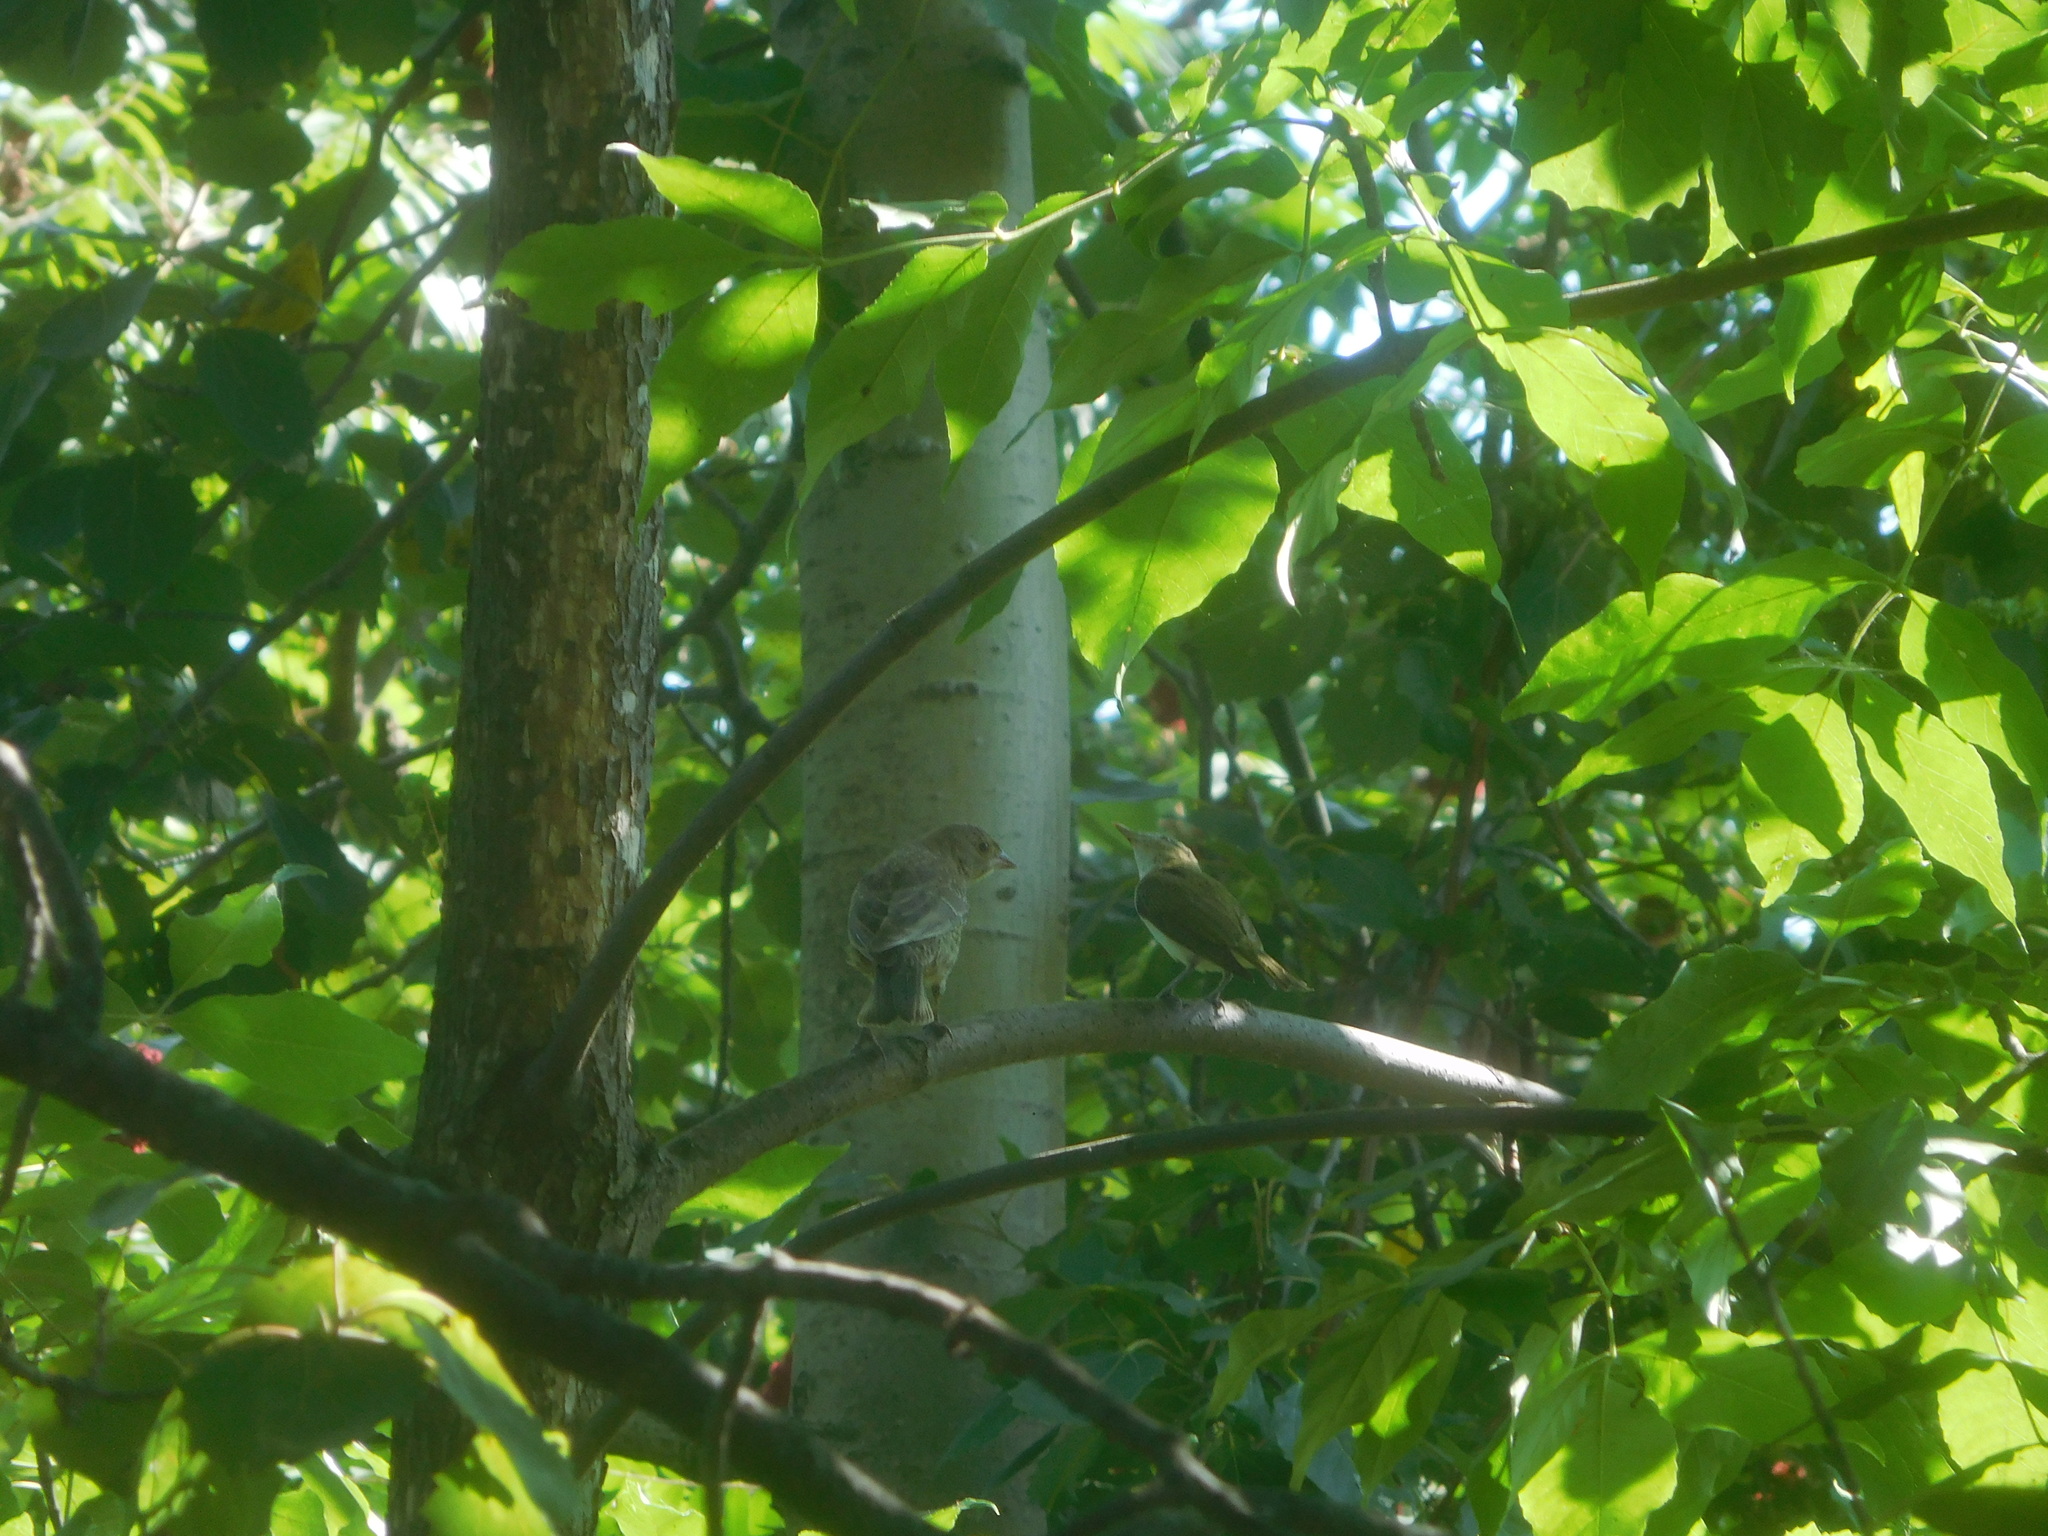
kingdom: Animalia
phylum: Chordata
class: Aves
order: Passeriformes
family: Vireonidae
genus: Vireo
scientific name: Vireo olivaceus
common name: Red-eyed vireo
